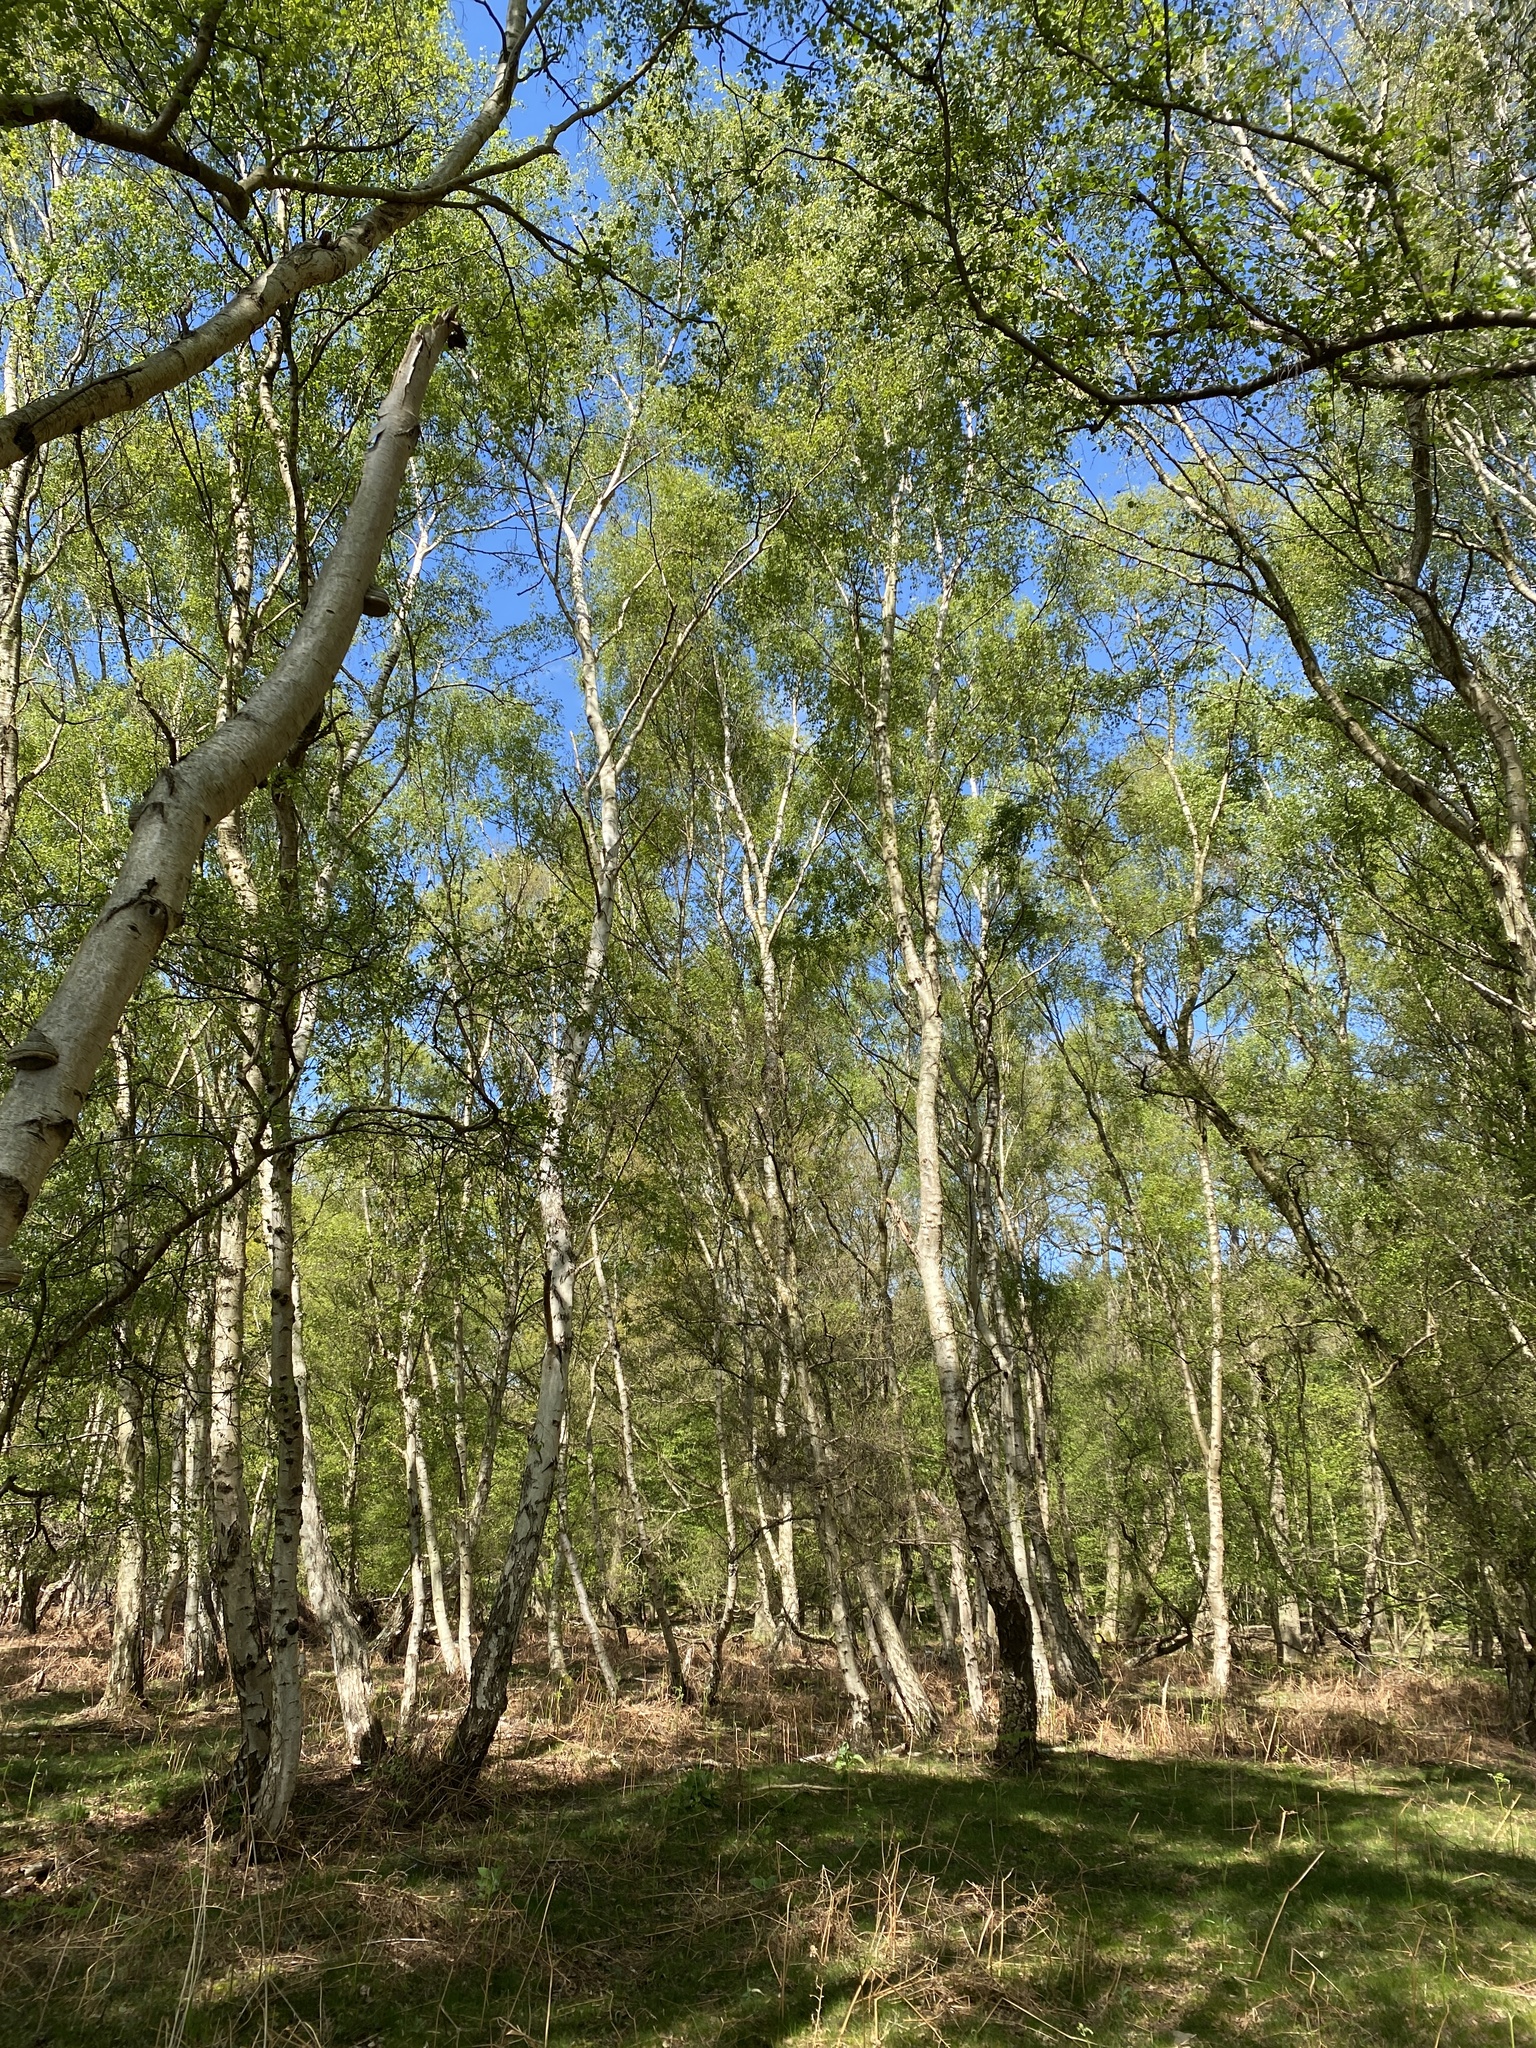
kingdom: Plantae
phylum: Tracheophyta
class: Magnoliopsida
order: Fagales
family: Betulaceae
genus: Betula
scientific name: Betula pendula
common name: Silver birch
